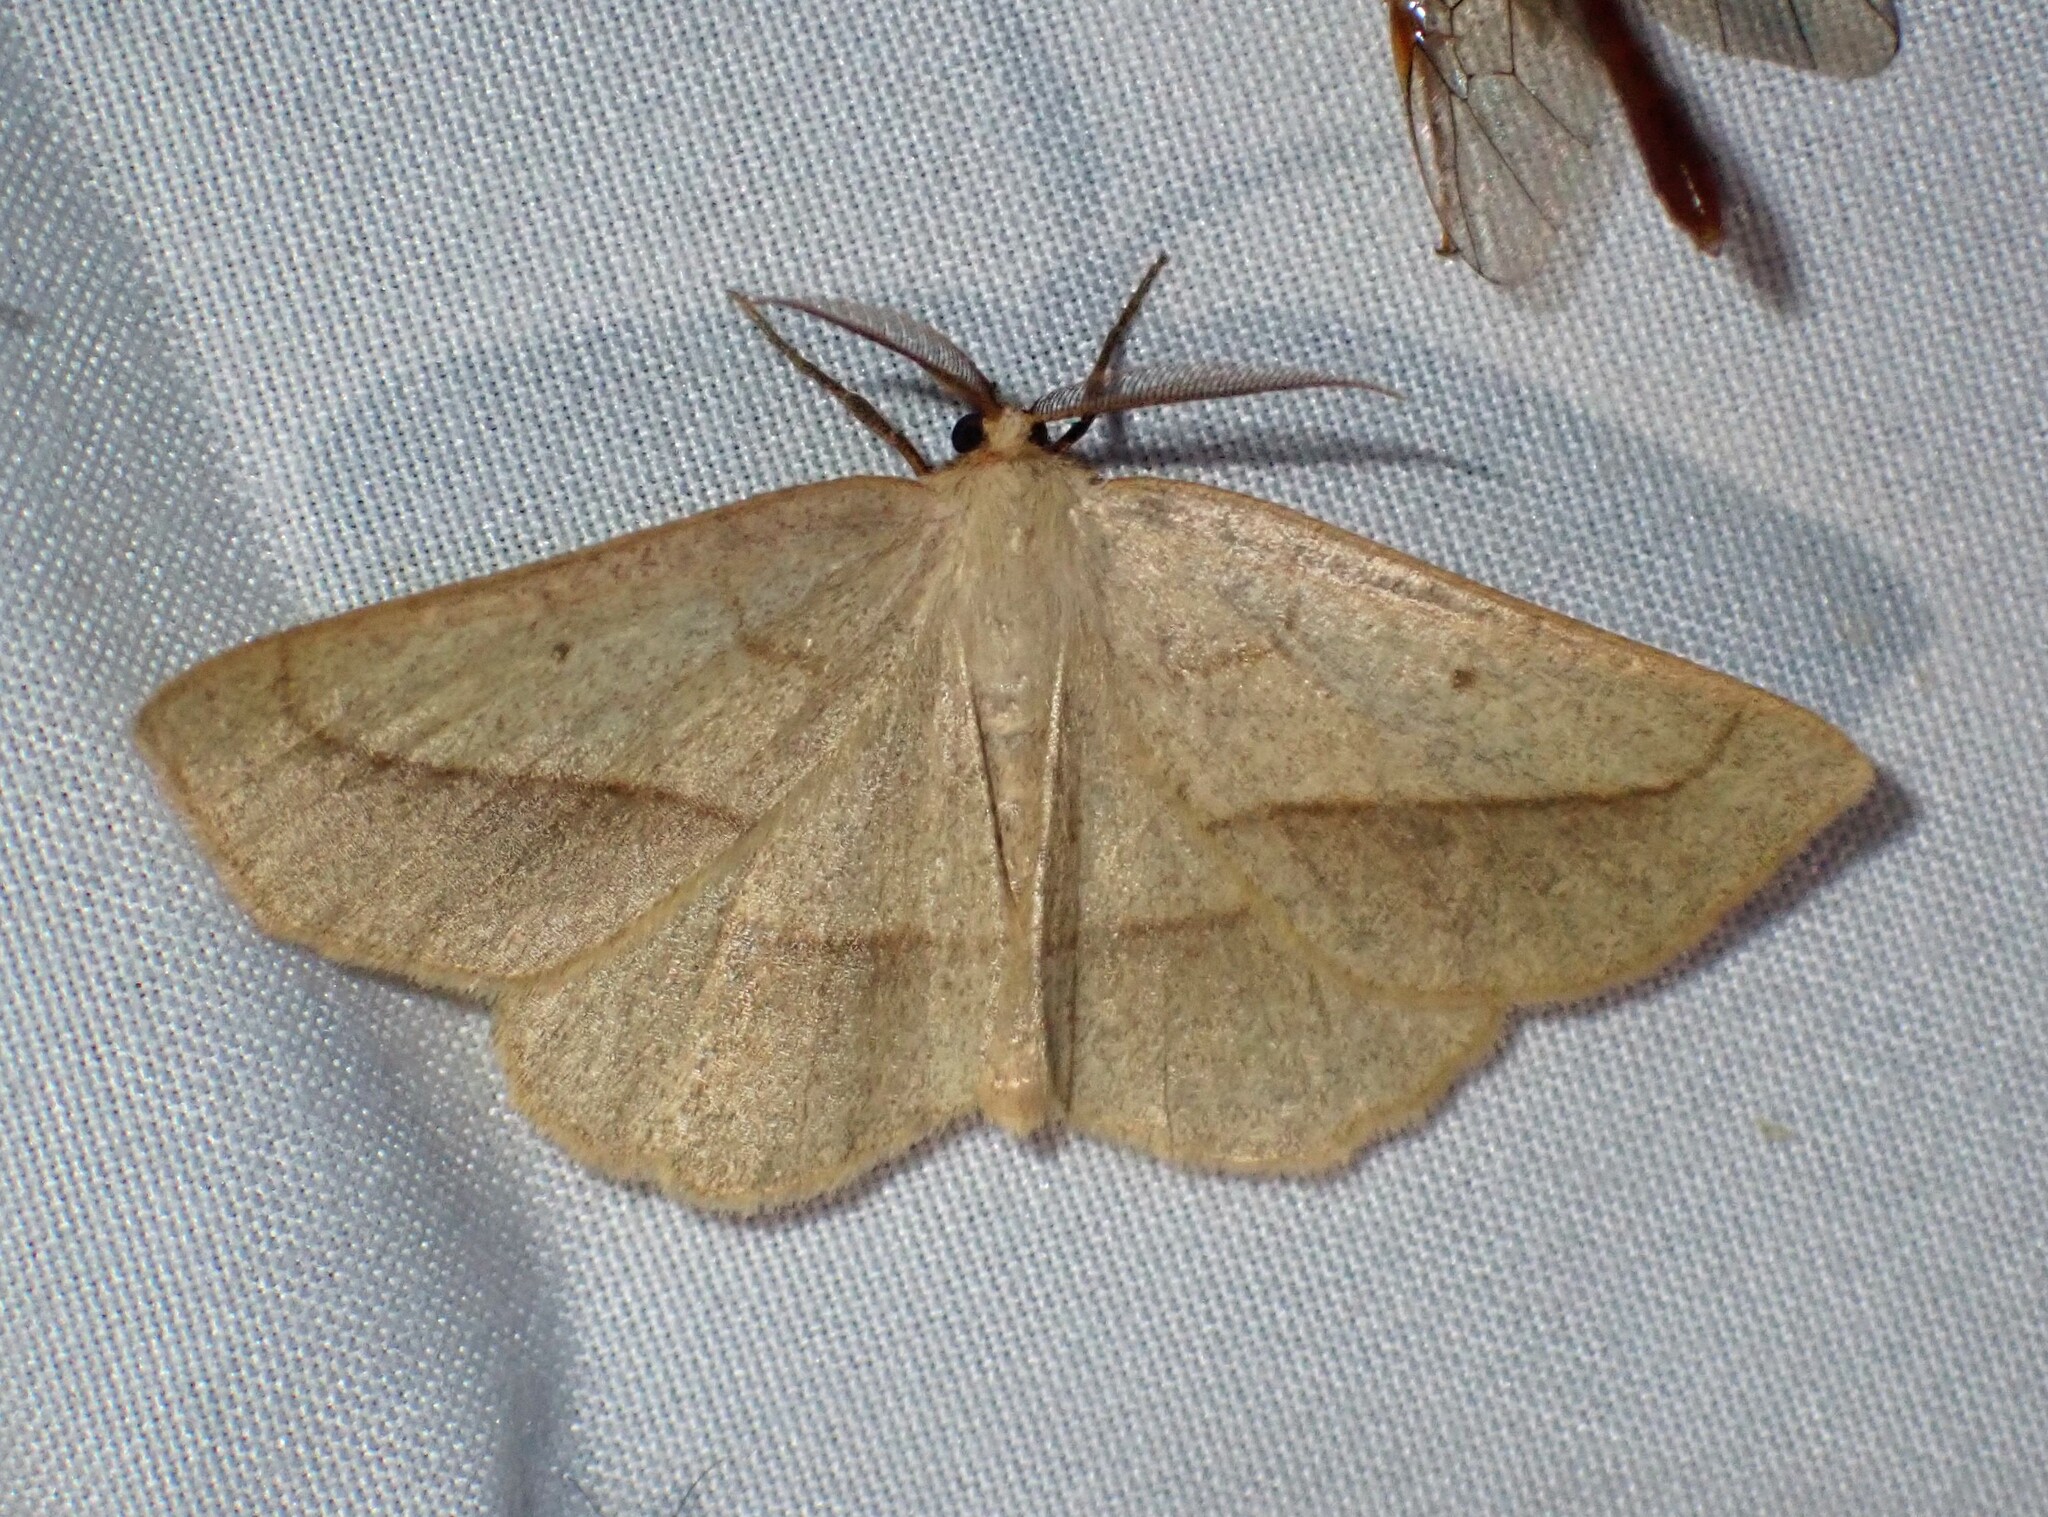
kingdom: Animalia
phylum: Arthropoda
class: Insecta
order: Lepidoptera
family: Geometridae
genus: Euchlaena
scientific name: Euchlaena irraria
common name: Least-marked euchlaena
